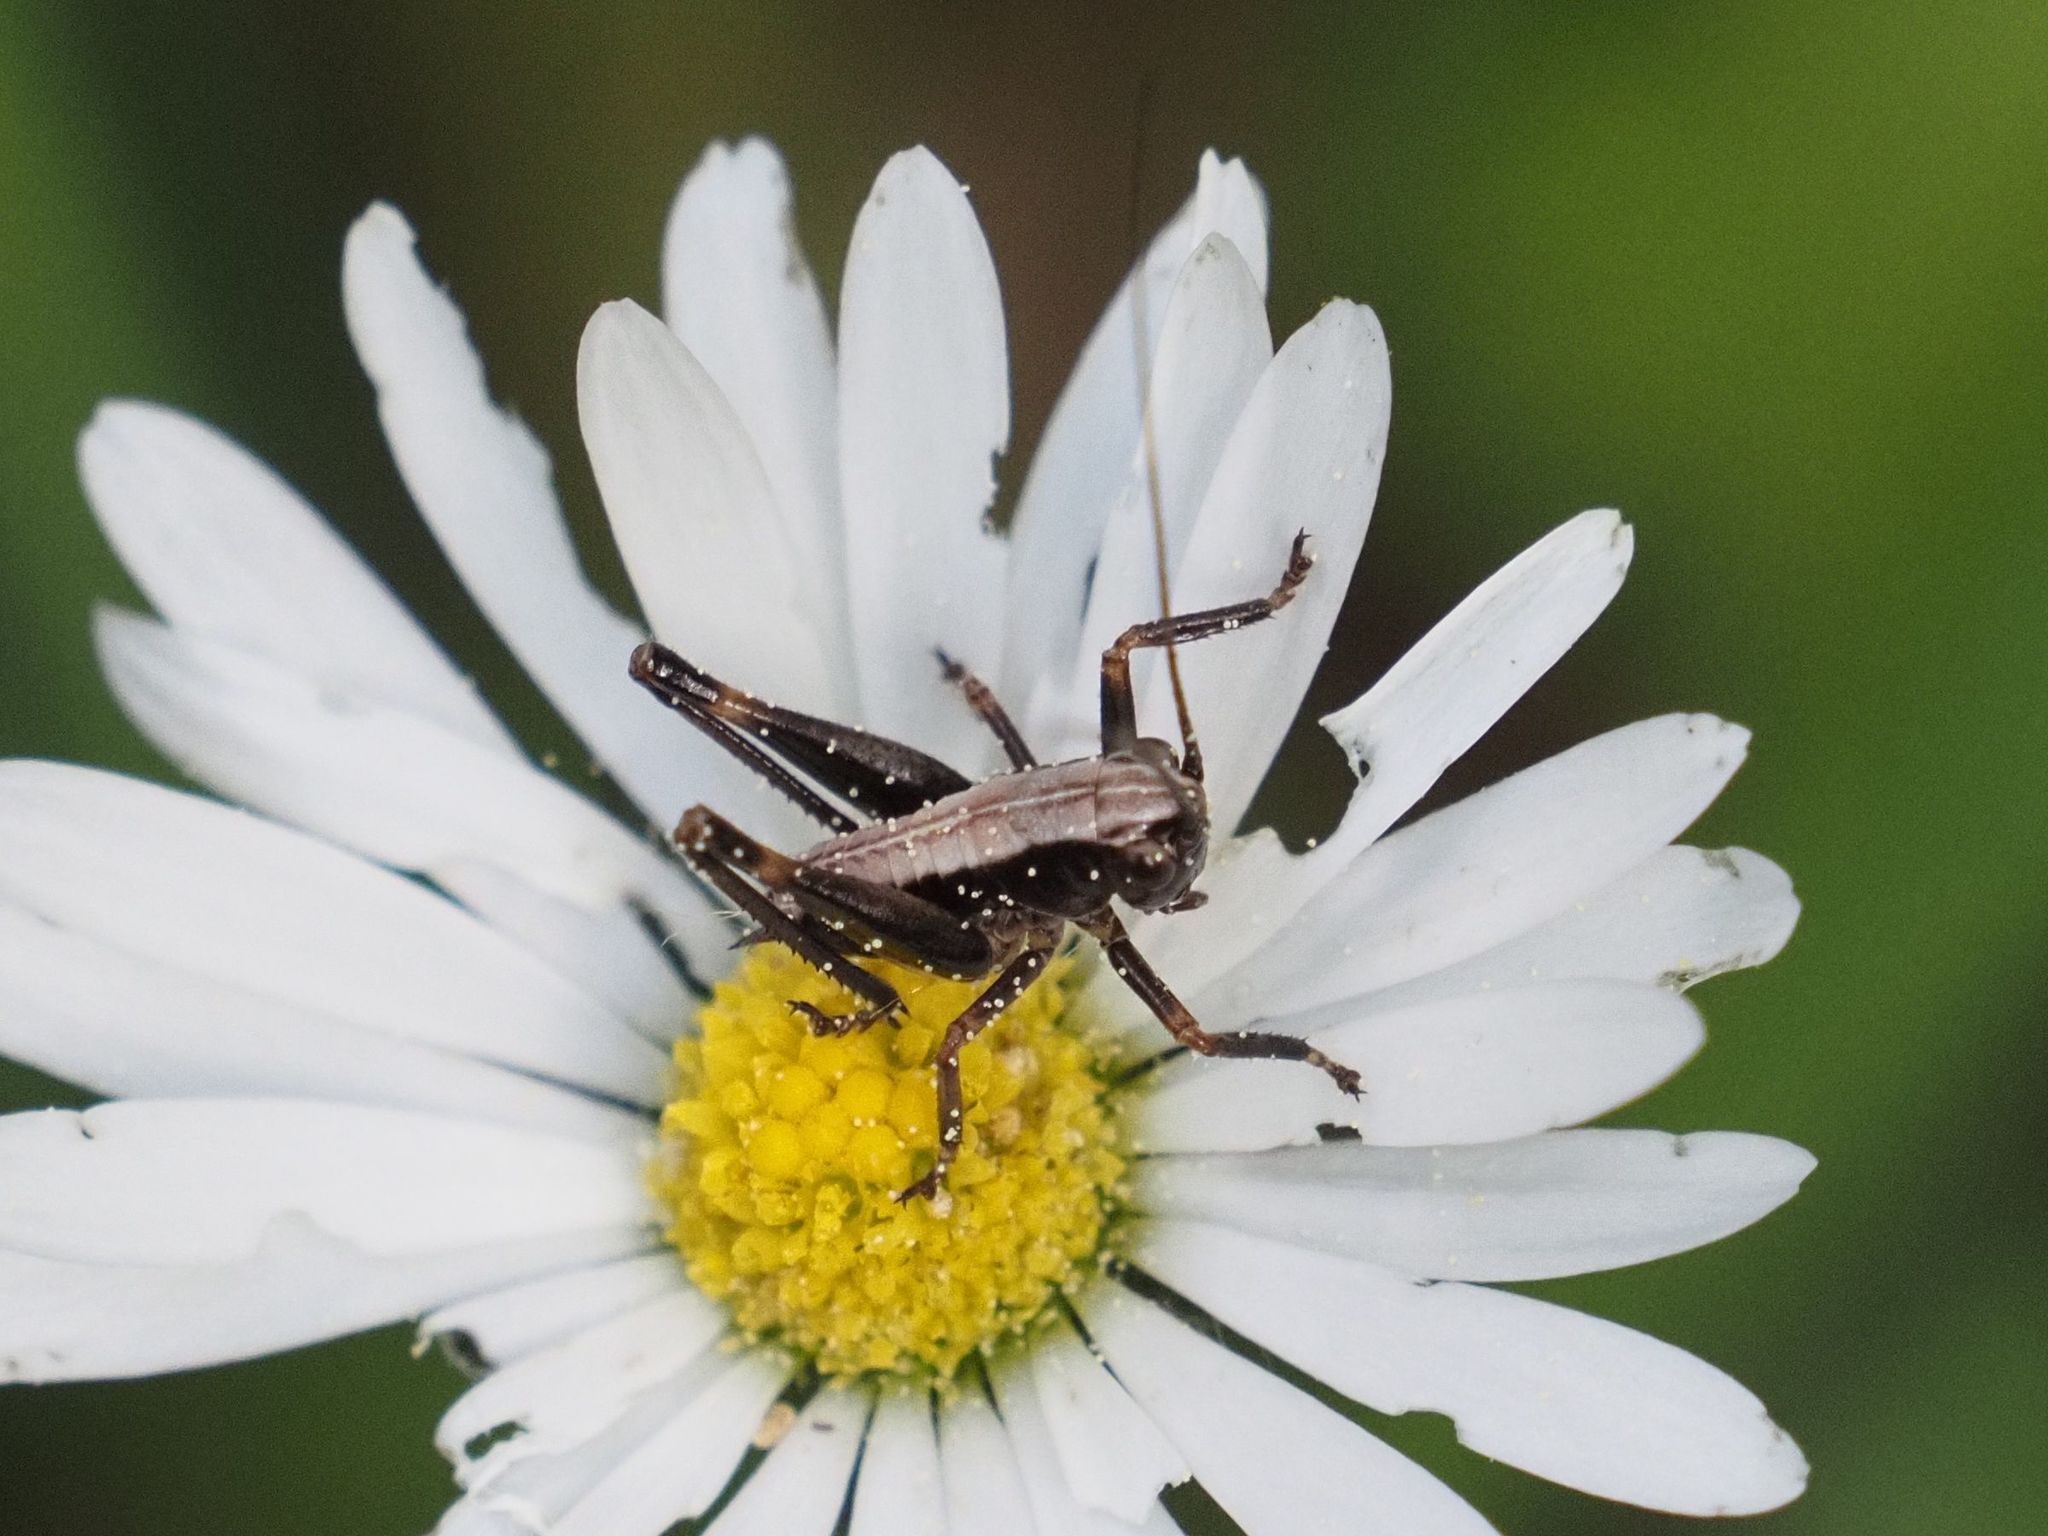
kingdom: Animalia
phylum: Arthropoda
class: Insecta
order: Orthoptera
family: Tettigoniidae
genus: Pholidoptera
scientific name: Pholidoptera griseoaptera
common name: Dark bush-cricket
